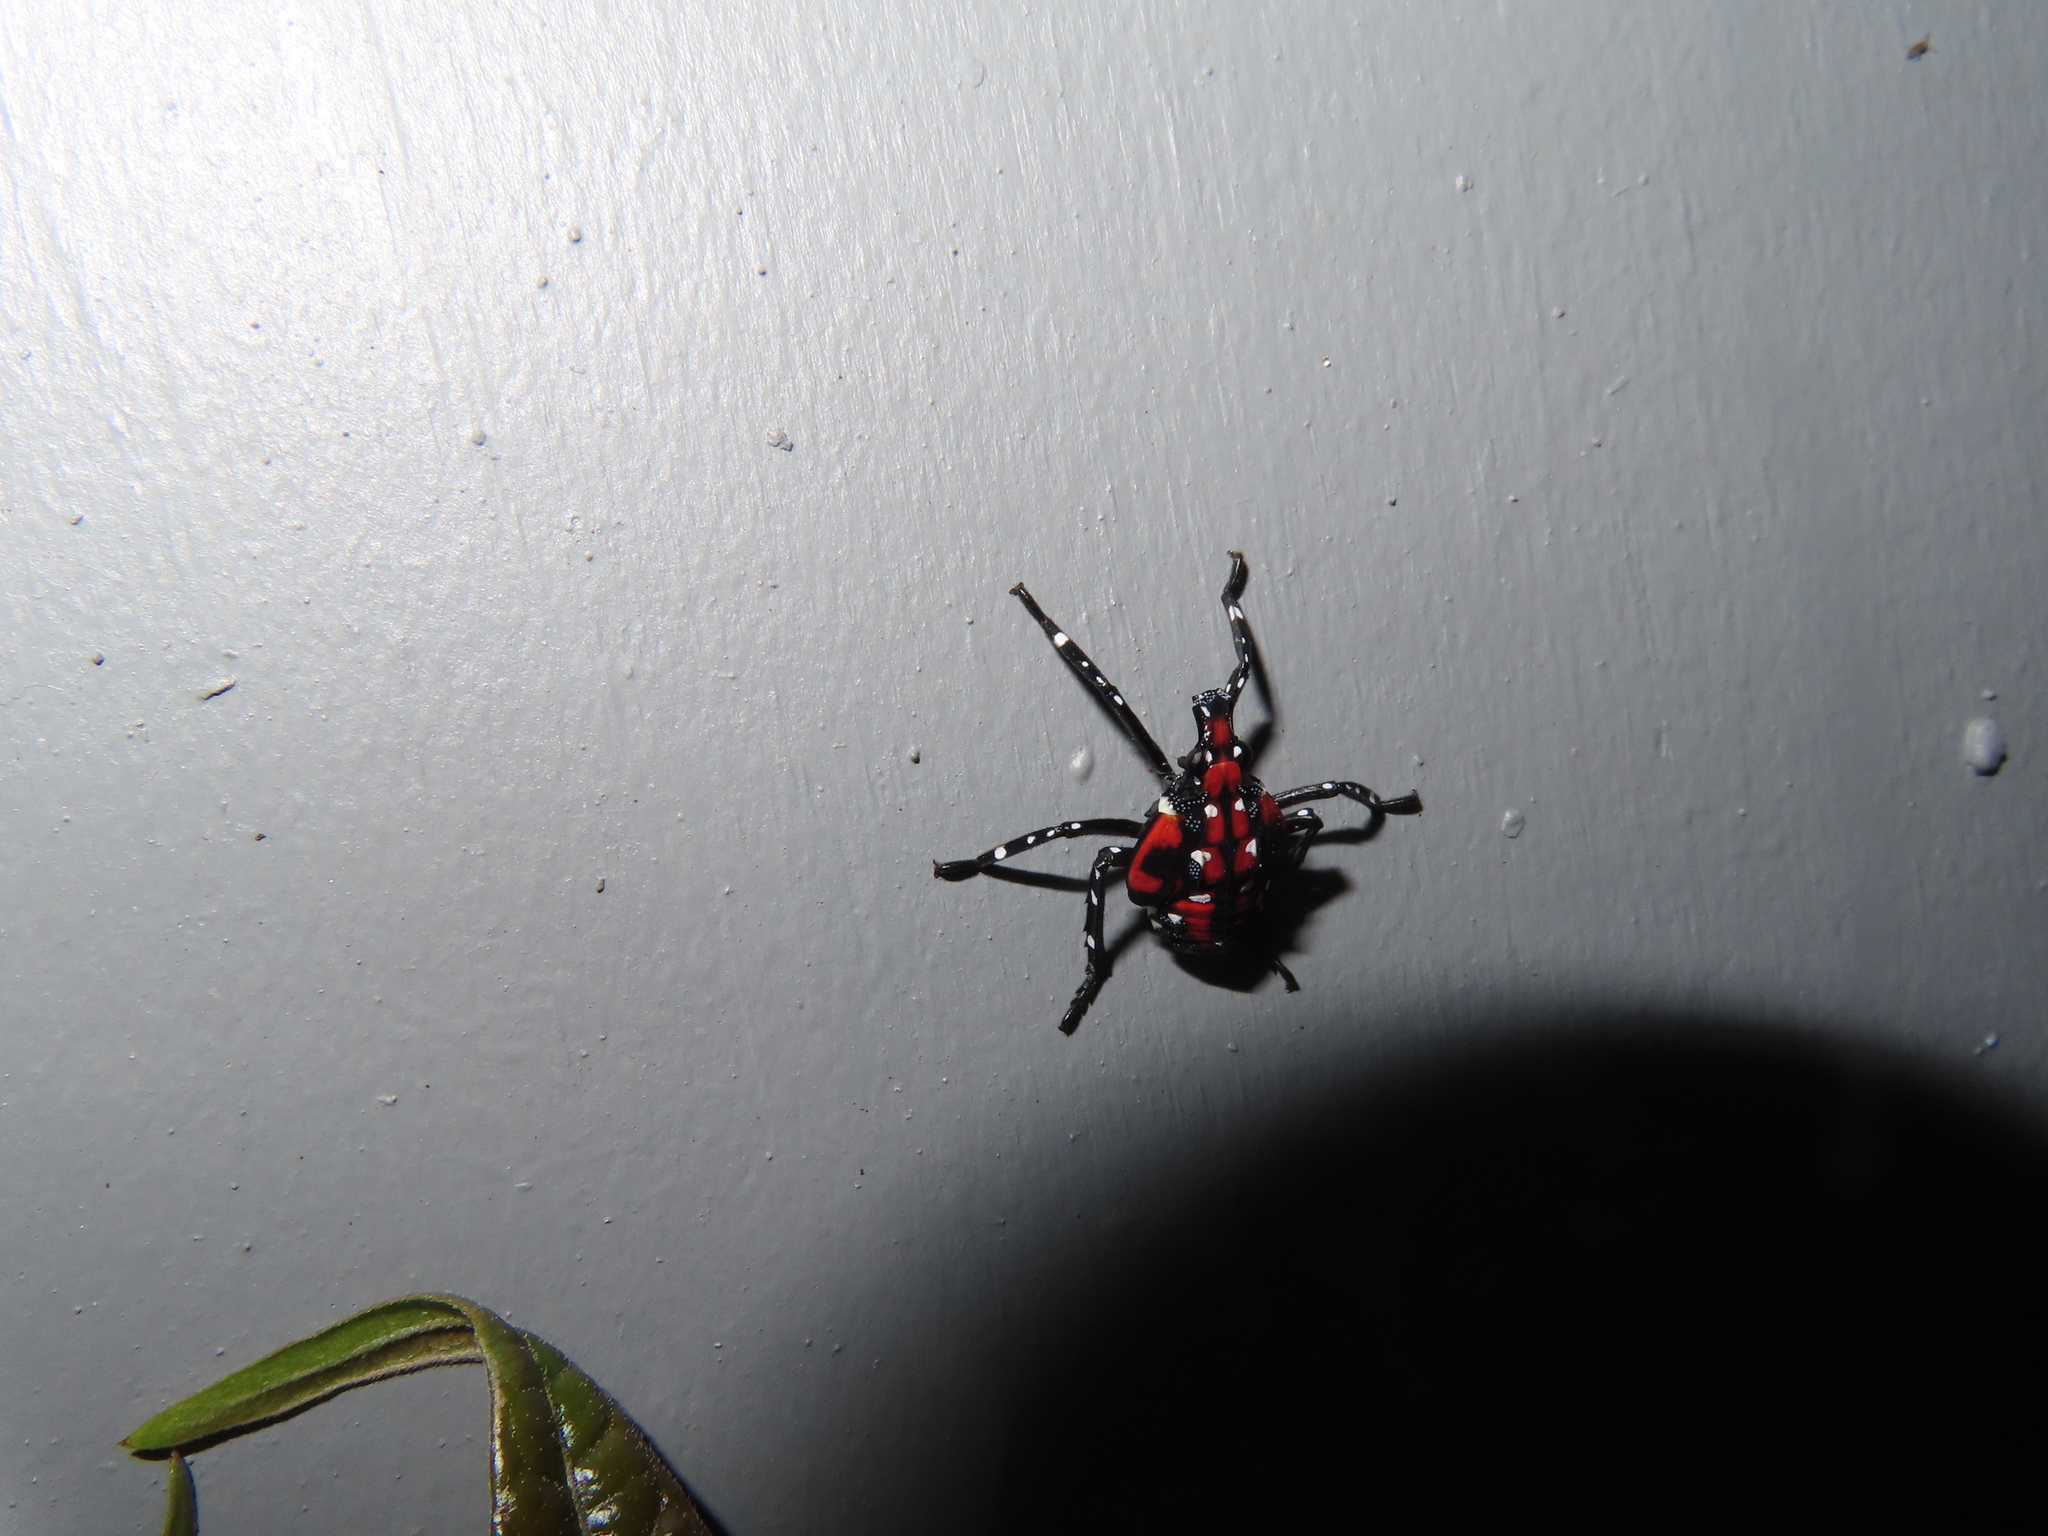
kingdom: Animalia
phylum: Arthropoda
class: Insecta
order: Hemiptera
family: Fulgoridae
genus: Lycorma
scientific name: Lycorma delicatula
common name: Spotted lanternfly
